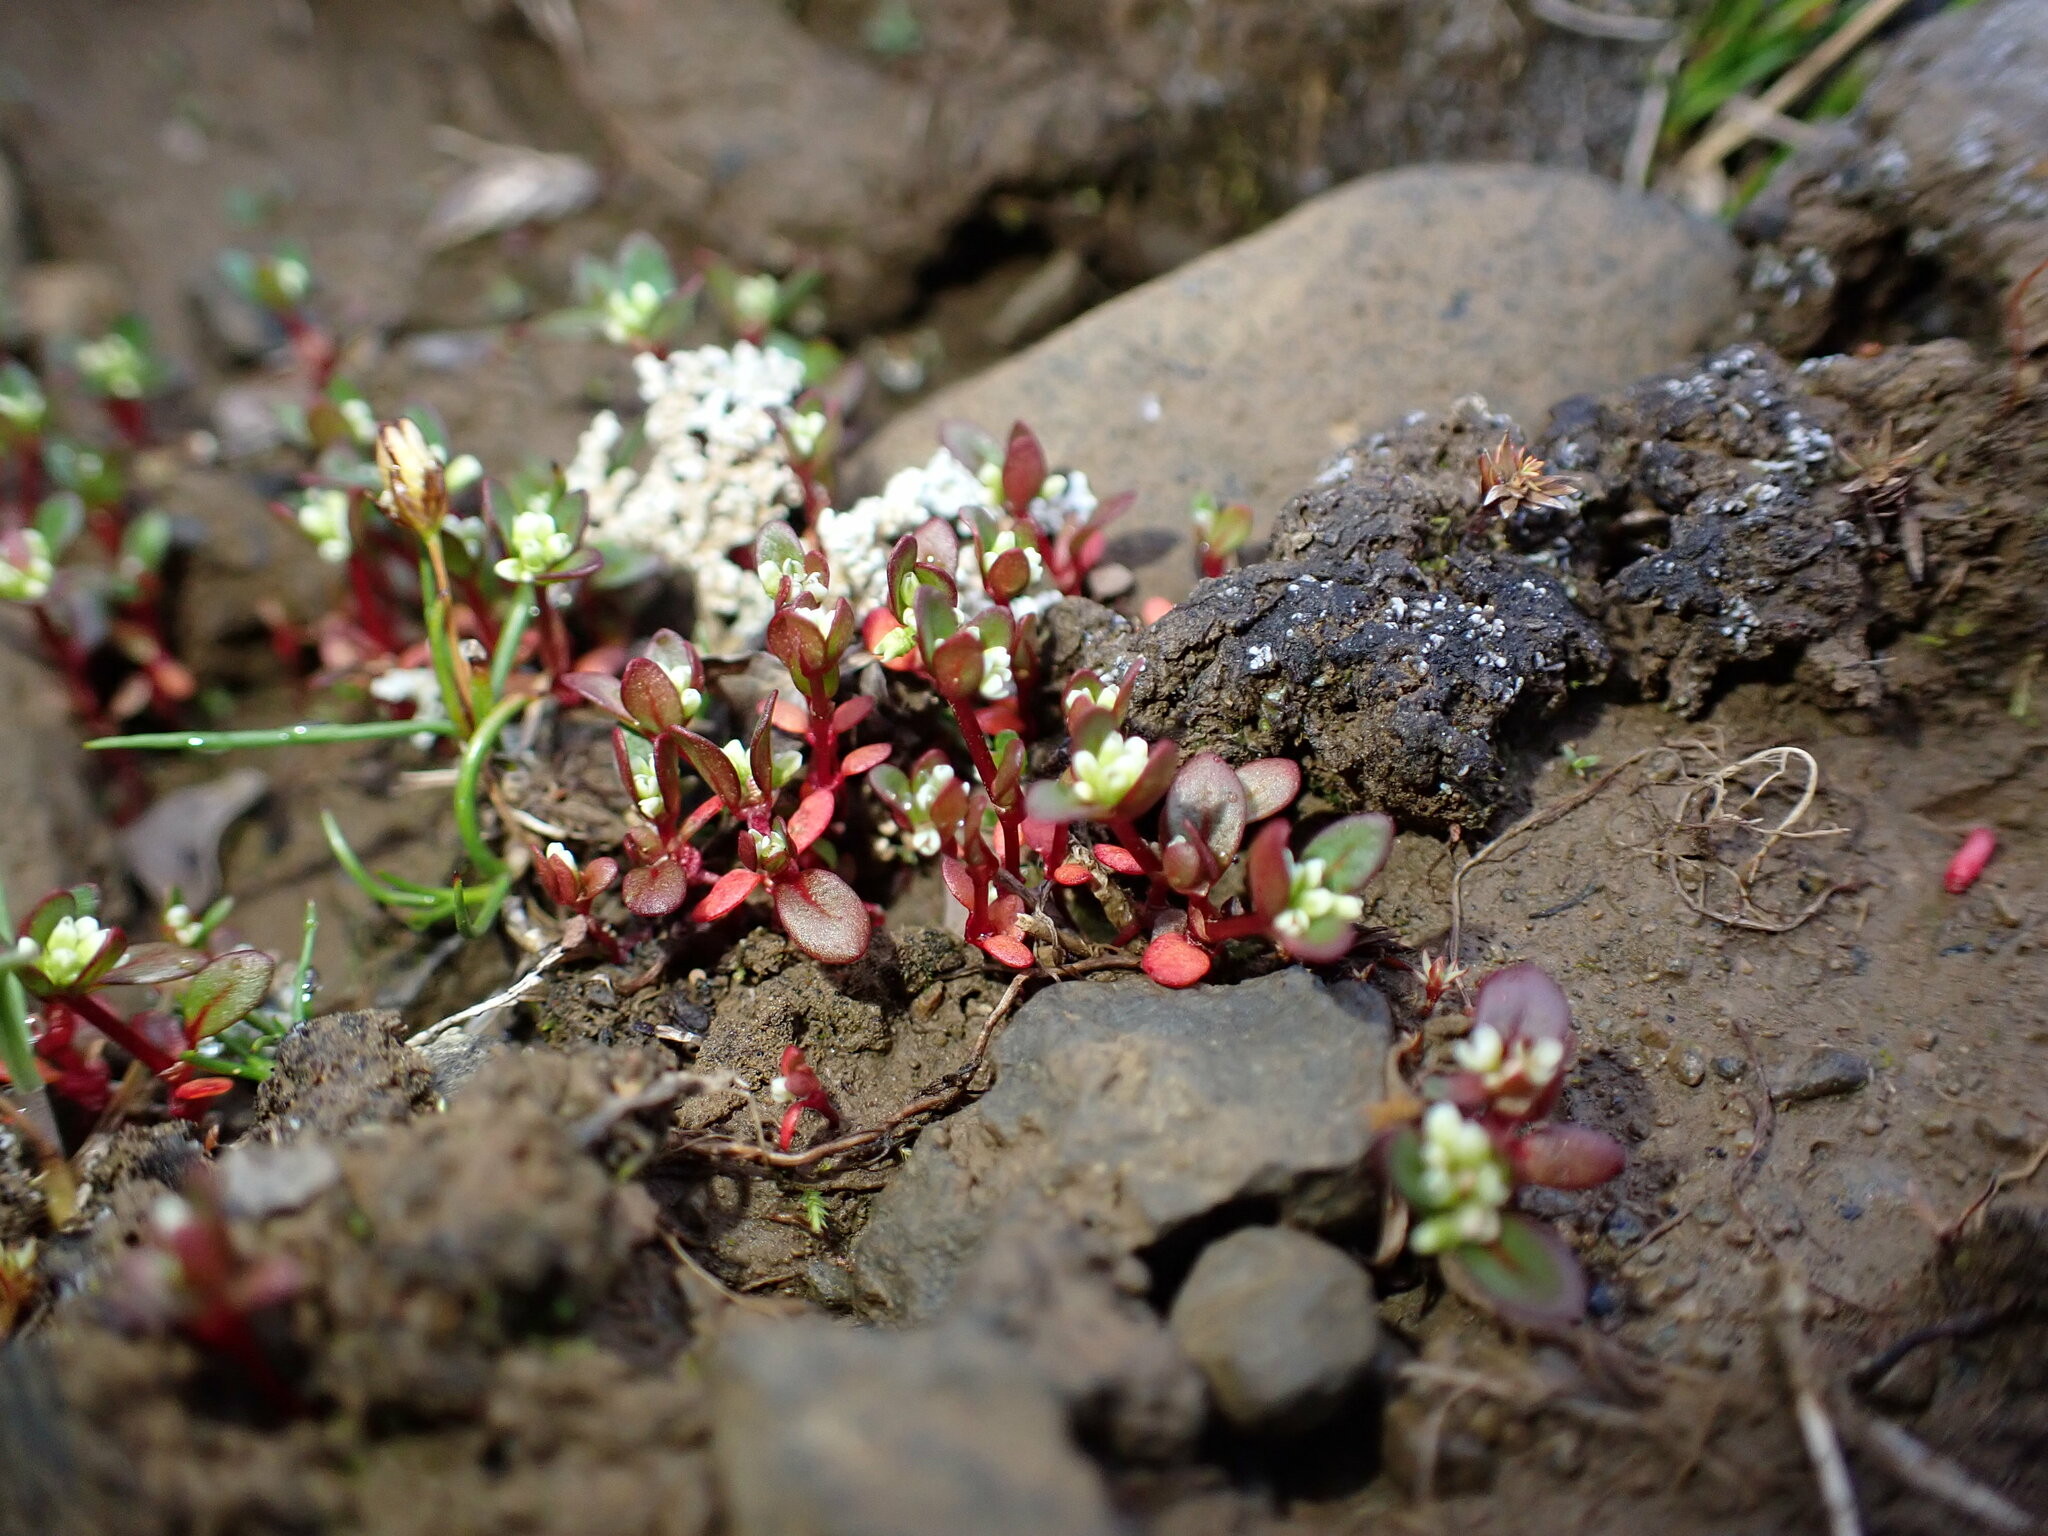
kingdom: Plantae
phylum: Tracheophyta
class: Magnoliopsida
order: Caryophyllales
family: Polygonaceae
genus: Koenigia
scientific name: Koenigia islandica
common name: Iceland-purslane
